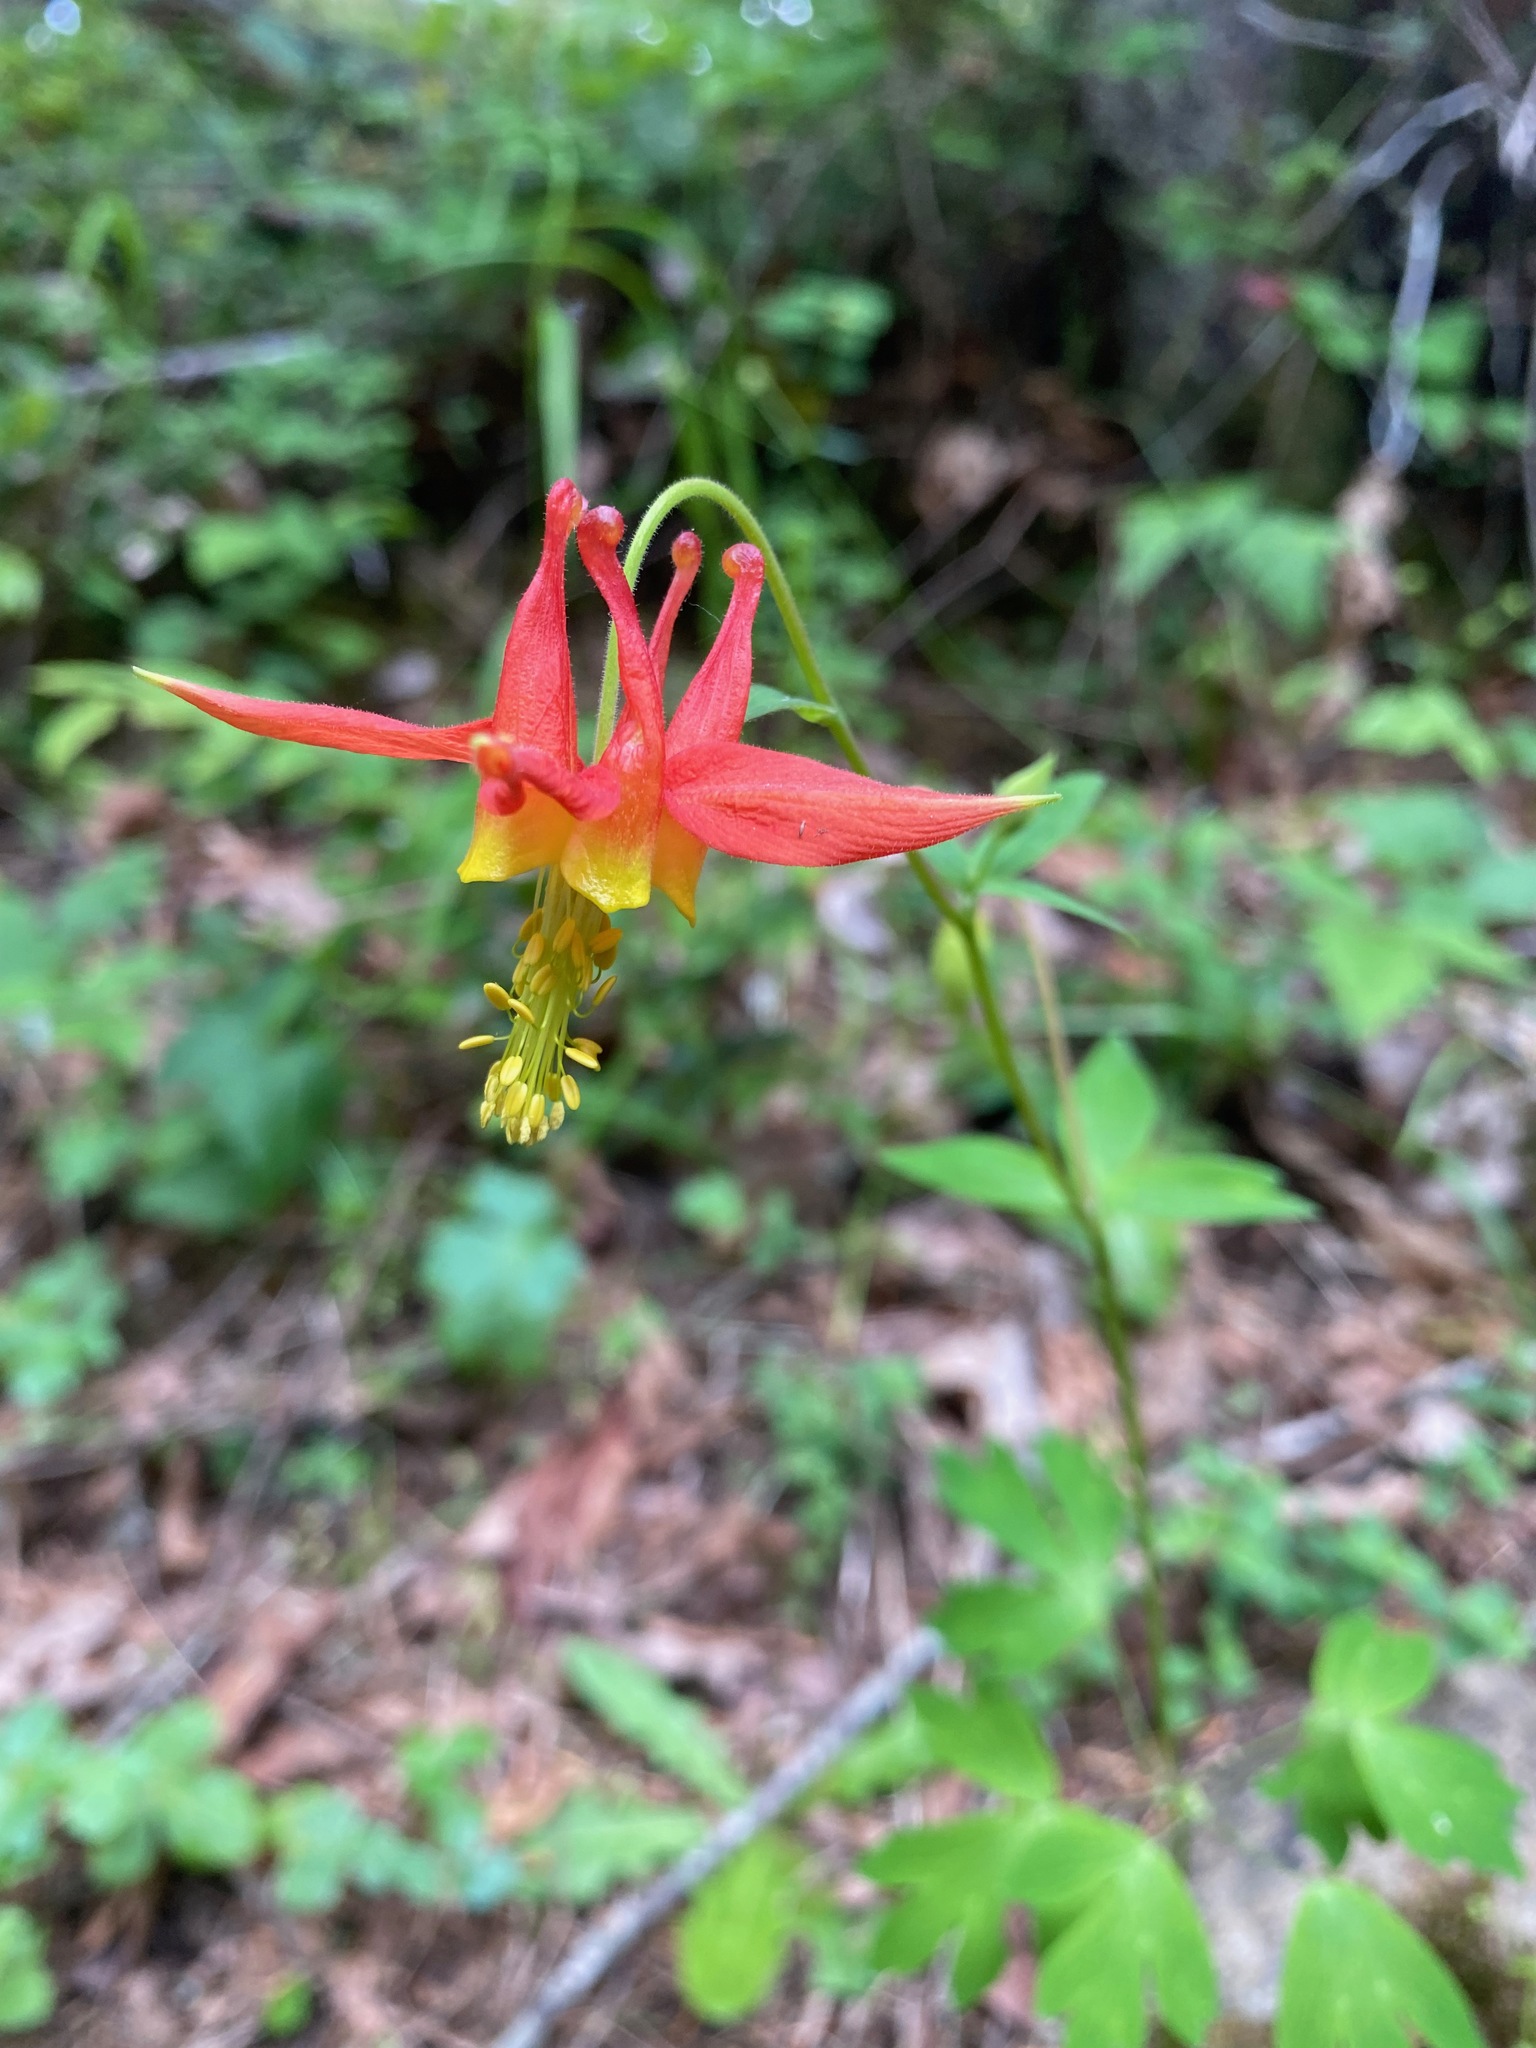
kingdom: Plantae
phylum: Tracheophyta
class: Magnoliopsida
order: Ranunculales
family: Ranunculaceae
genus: Aquilegia
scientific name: Aquilegia formosa
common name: Sitka columbine
